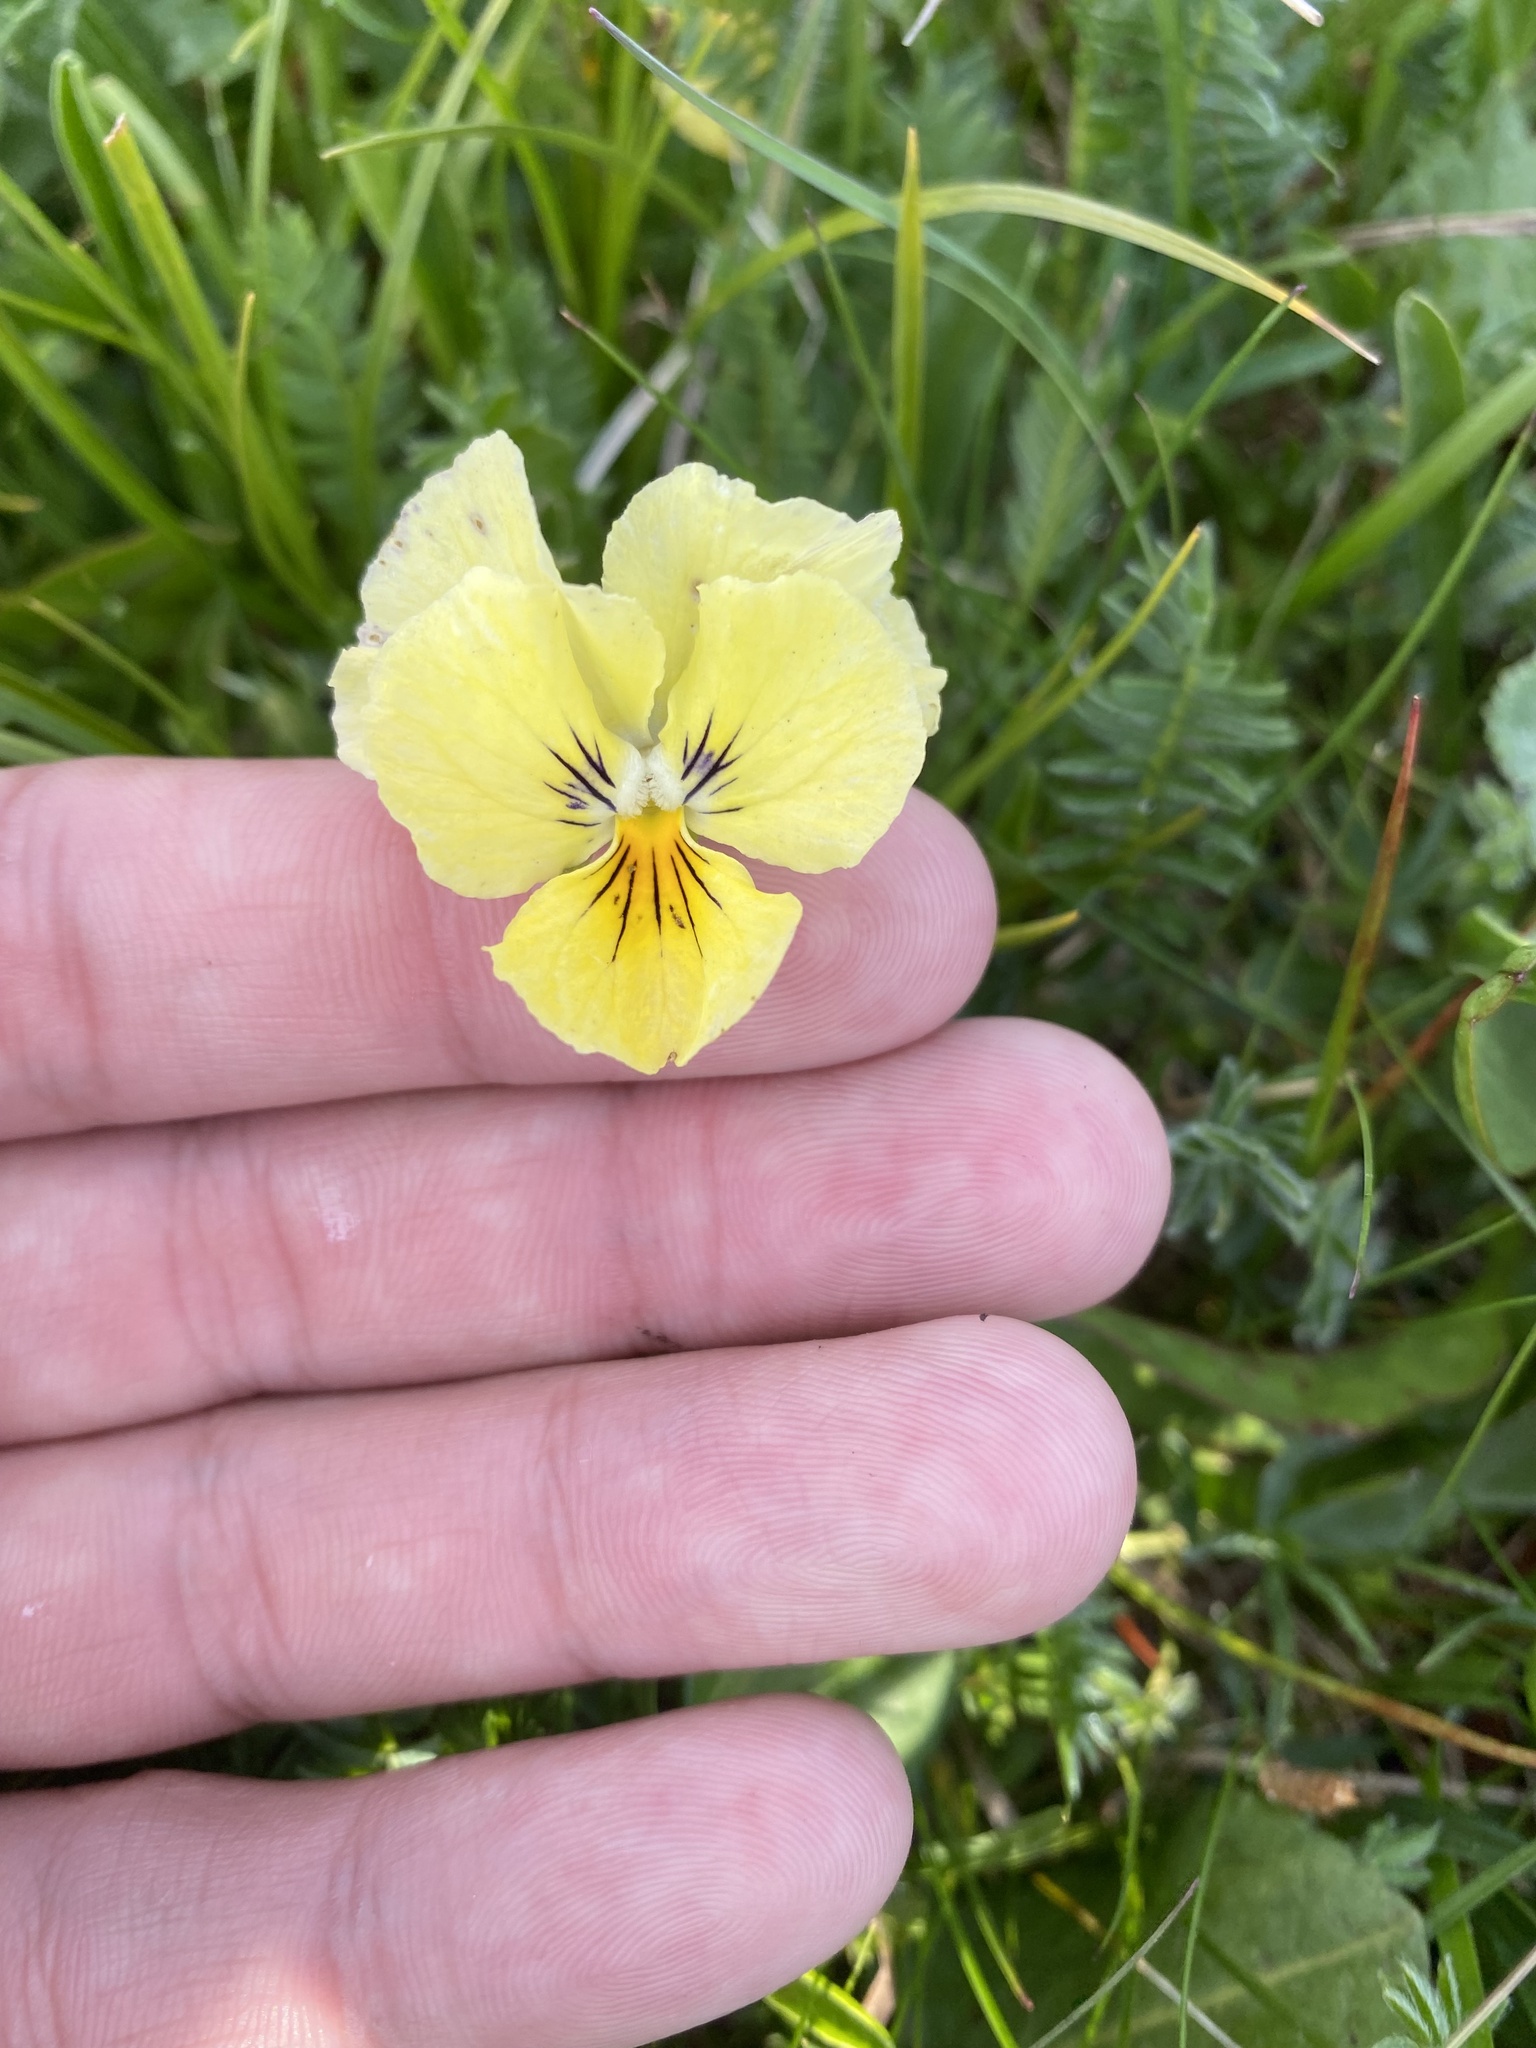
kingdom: Plantae
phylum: Tracheophyta
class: Magnoliopsida
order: Malpighiales
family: Violaceae
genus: Viola
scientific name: Viola oreades
